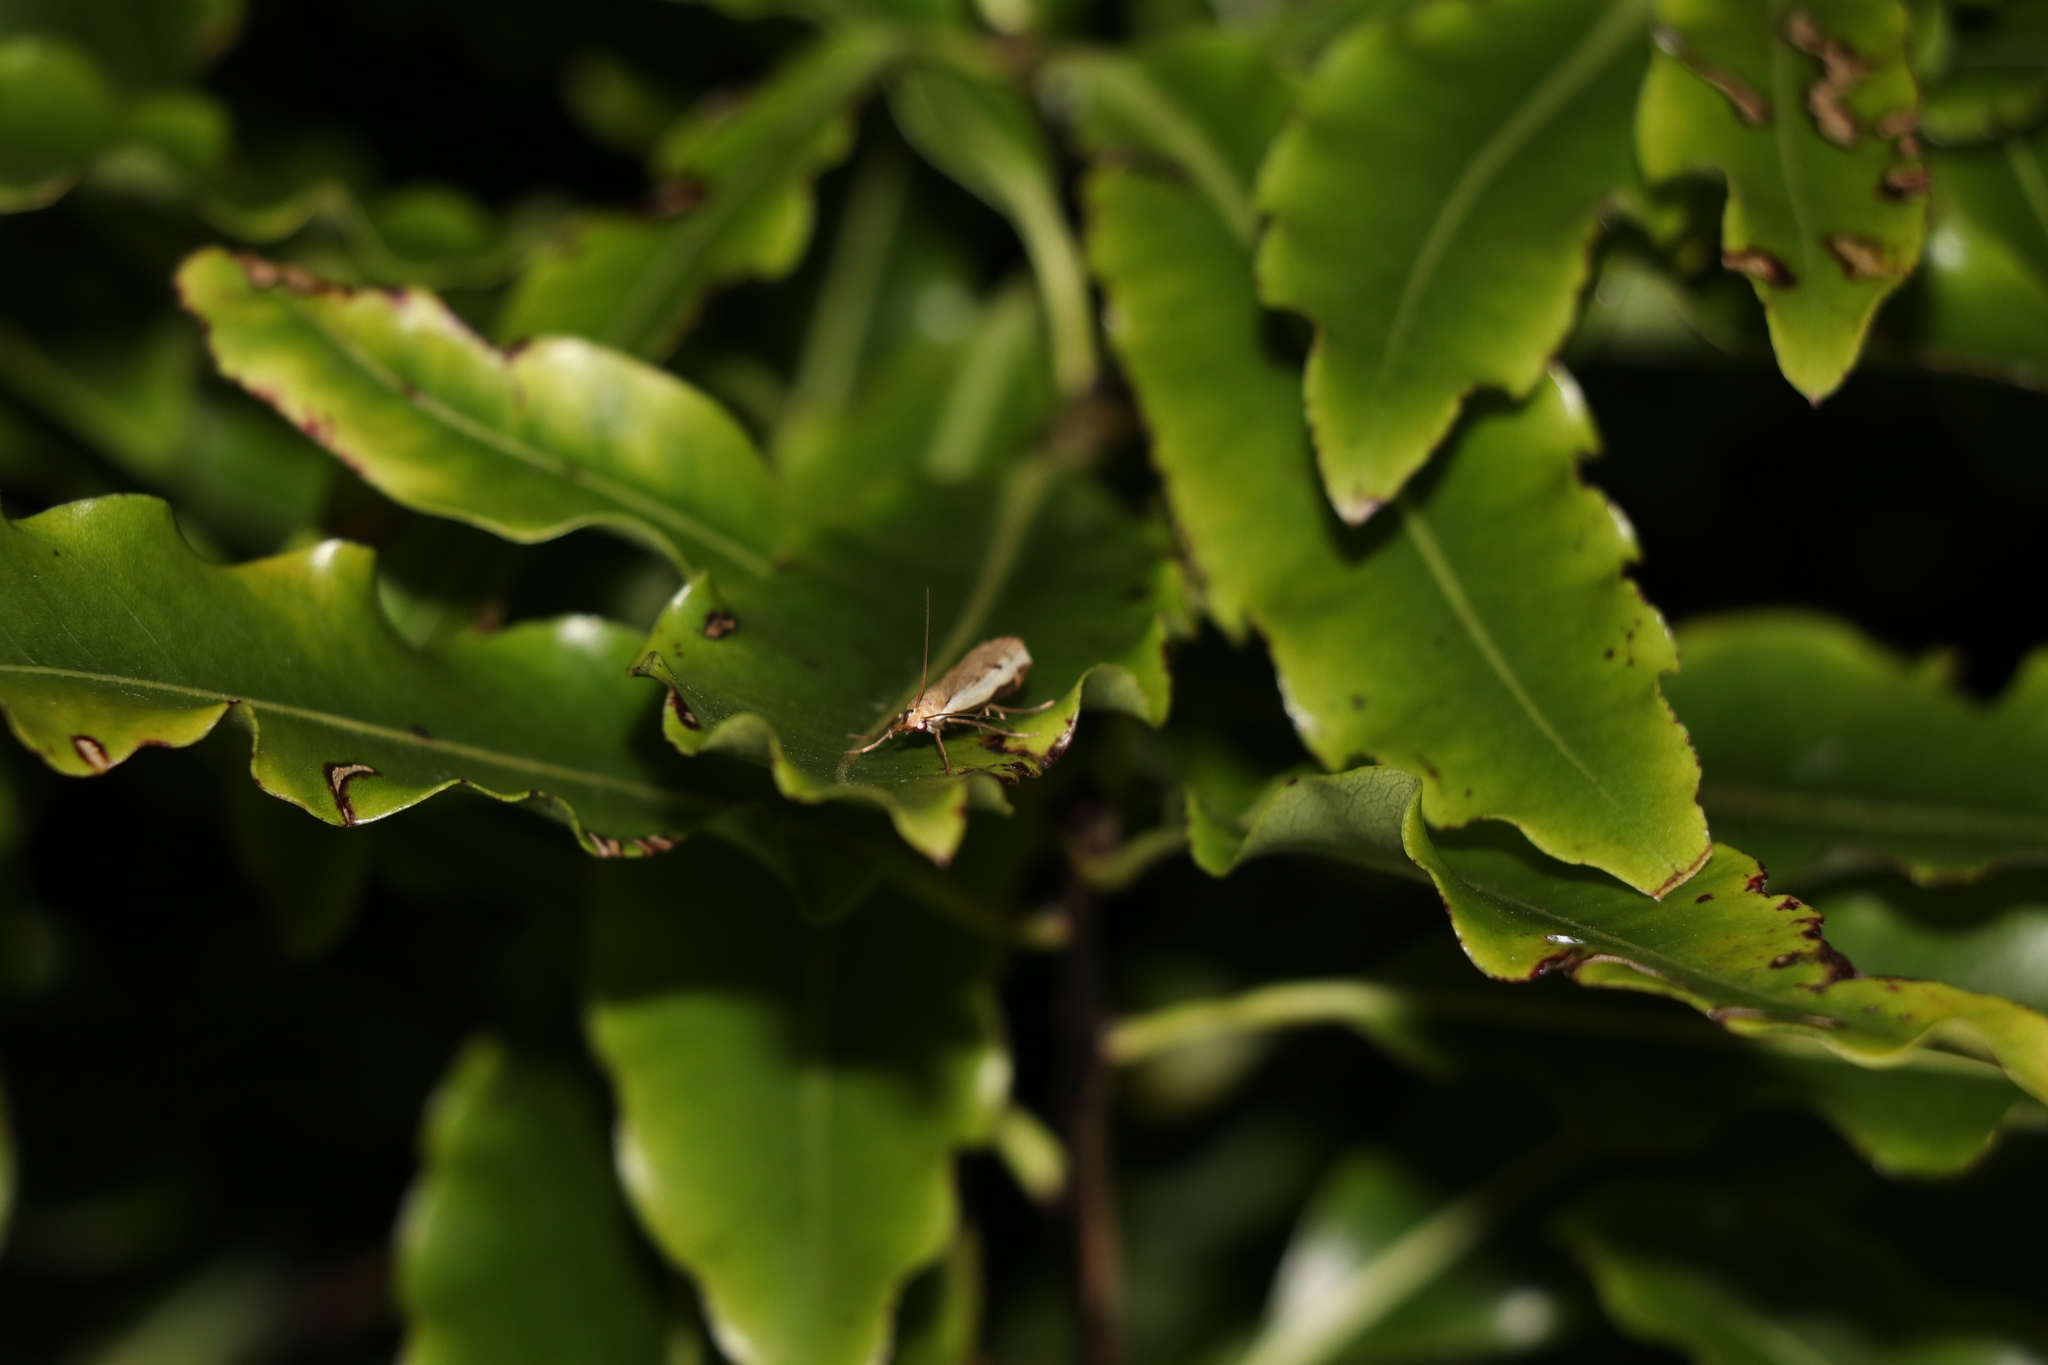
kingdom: Animalia
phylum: Arthropoda
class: Insecta
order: Lepidoptera
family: Crambidae
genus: Orocrambus
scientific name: Orocrambus flexuosellus
